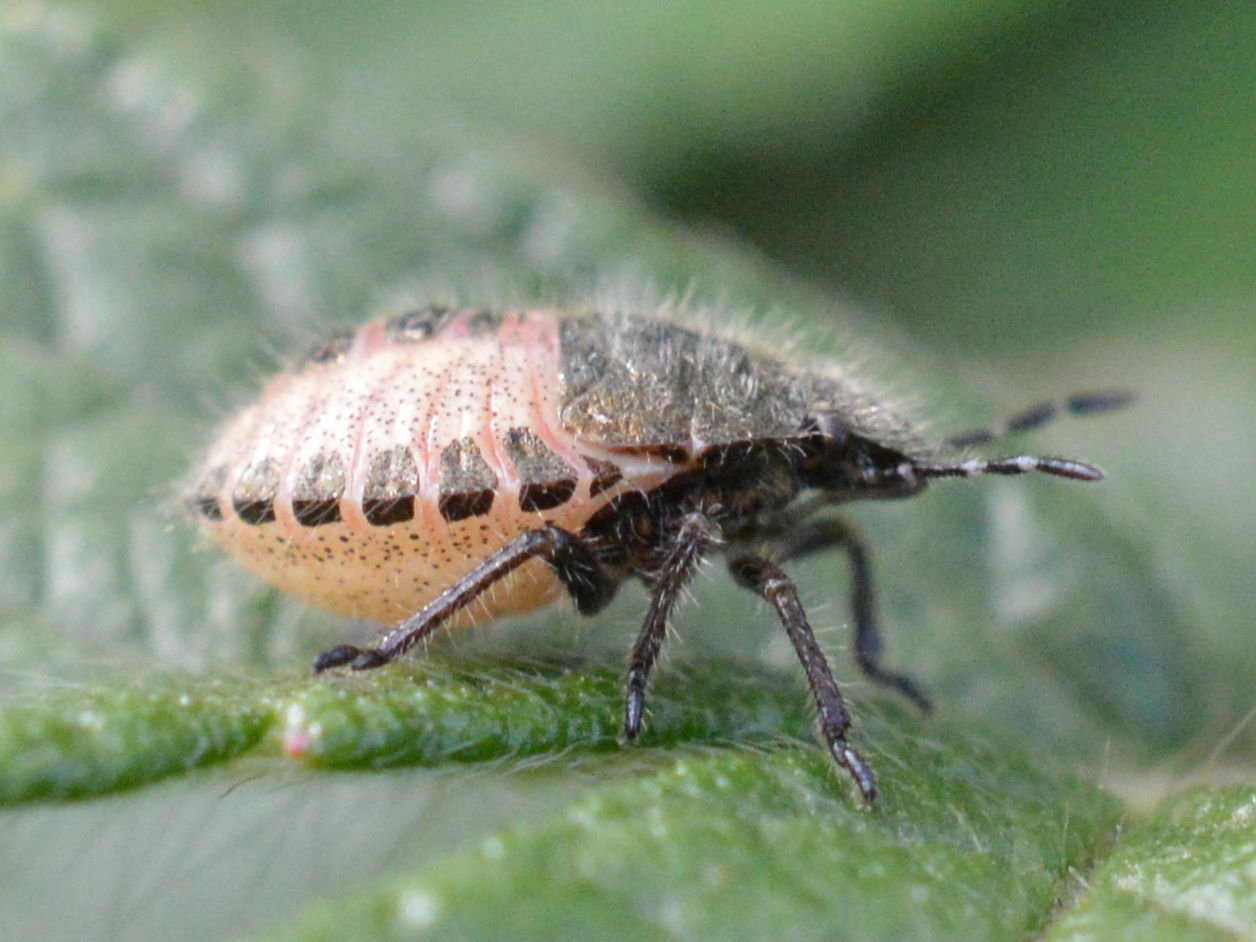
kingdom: Animalia
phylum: Arthropoda
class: Insecta
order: Hemiptera
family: Pentatomidae
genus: Dolycoris
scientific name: Dolycoris baccarum
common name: Sloe bug
